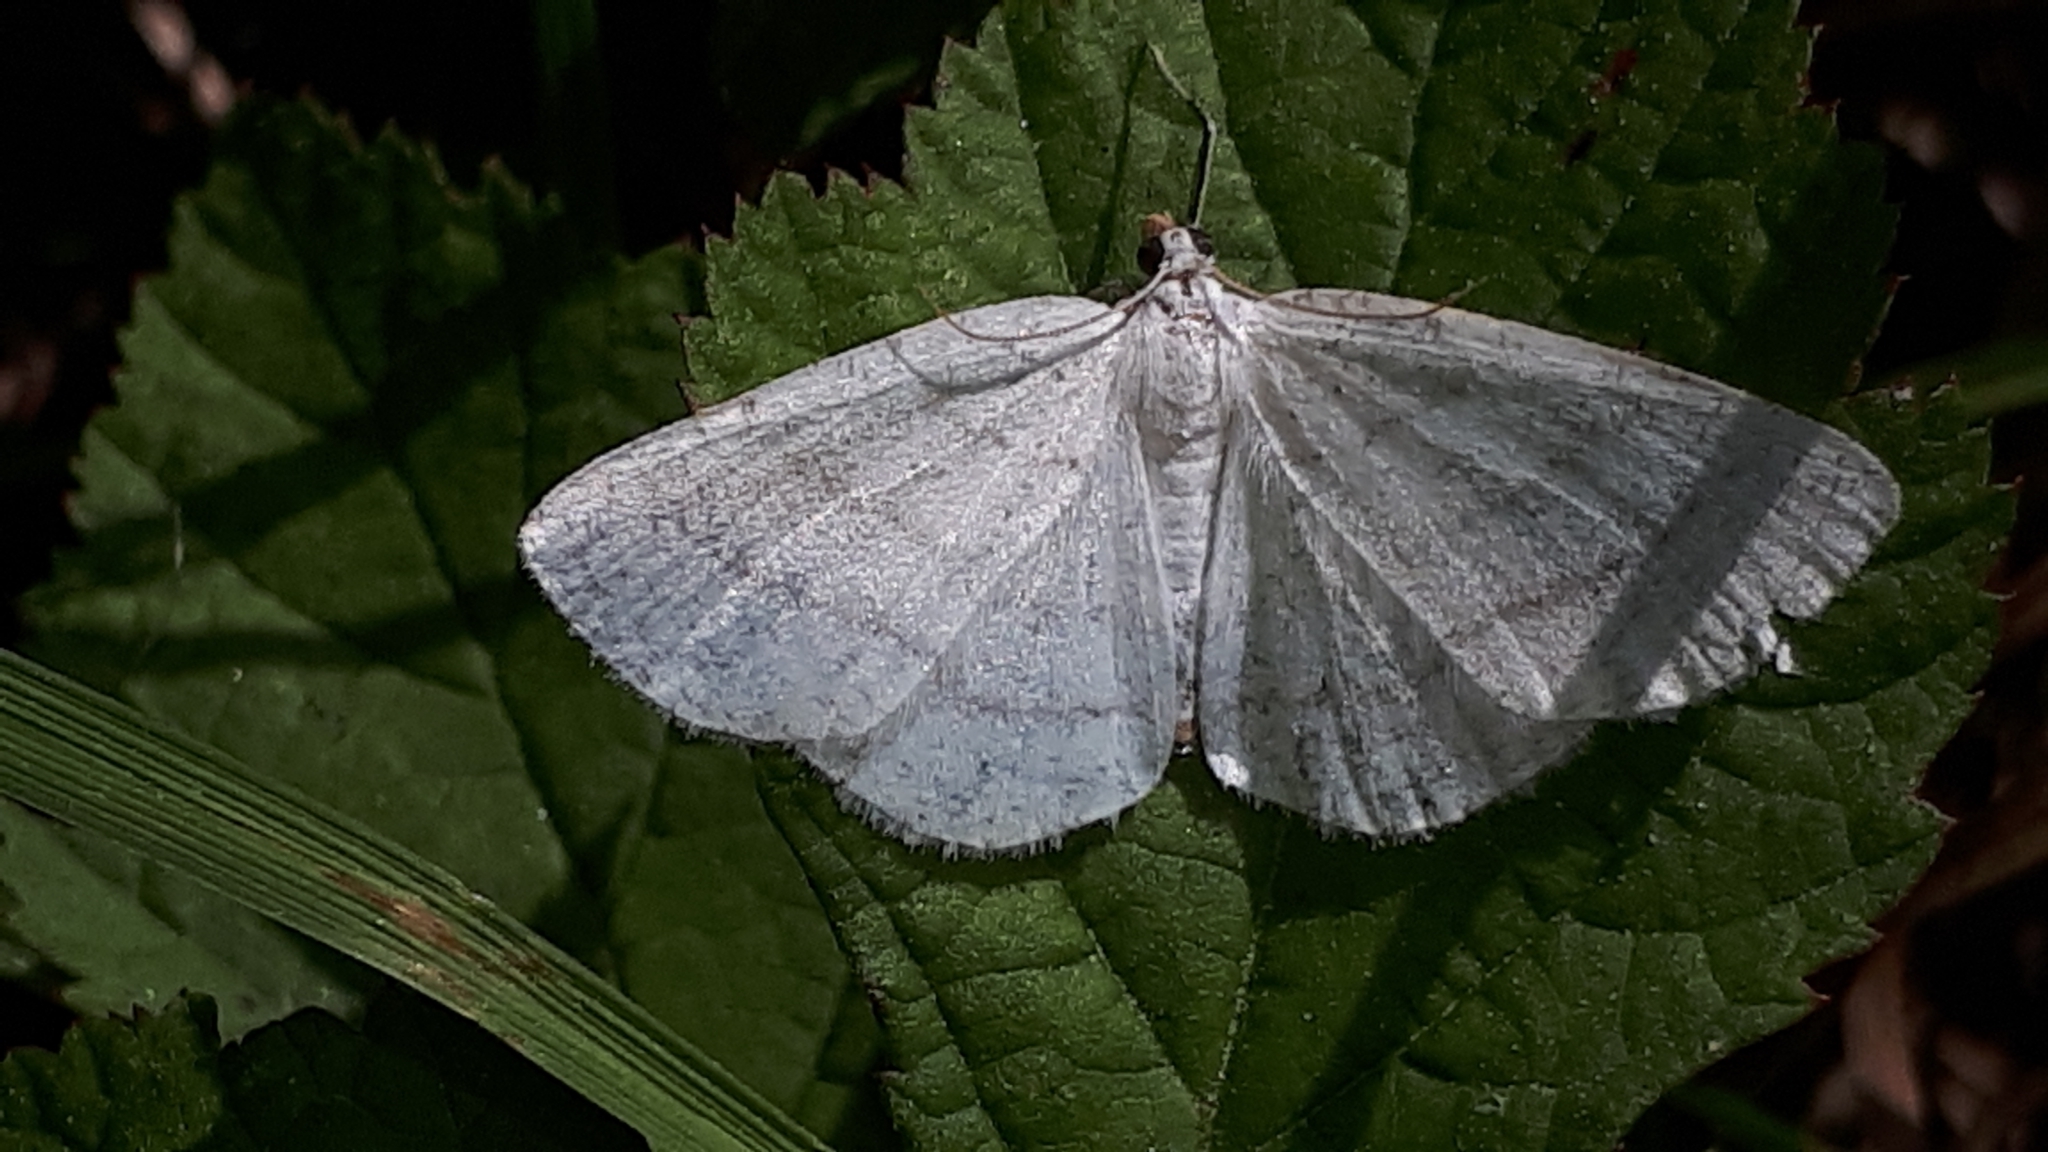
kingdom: Animalia
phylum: Arthropoda
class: Insecta
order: Lepidoptera
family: Geometridae
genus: Cabera
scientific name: Cabera pusaria
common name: Common white wave
